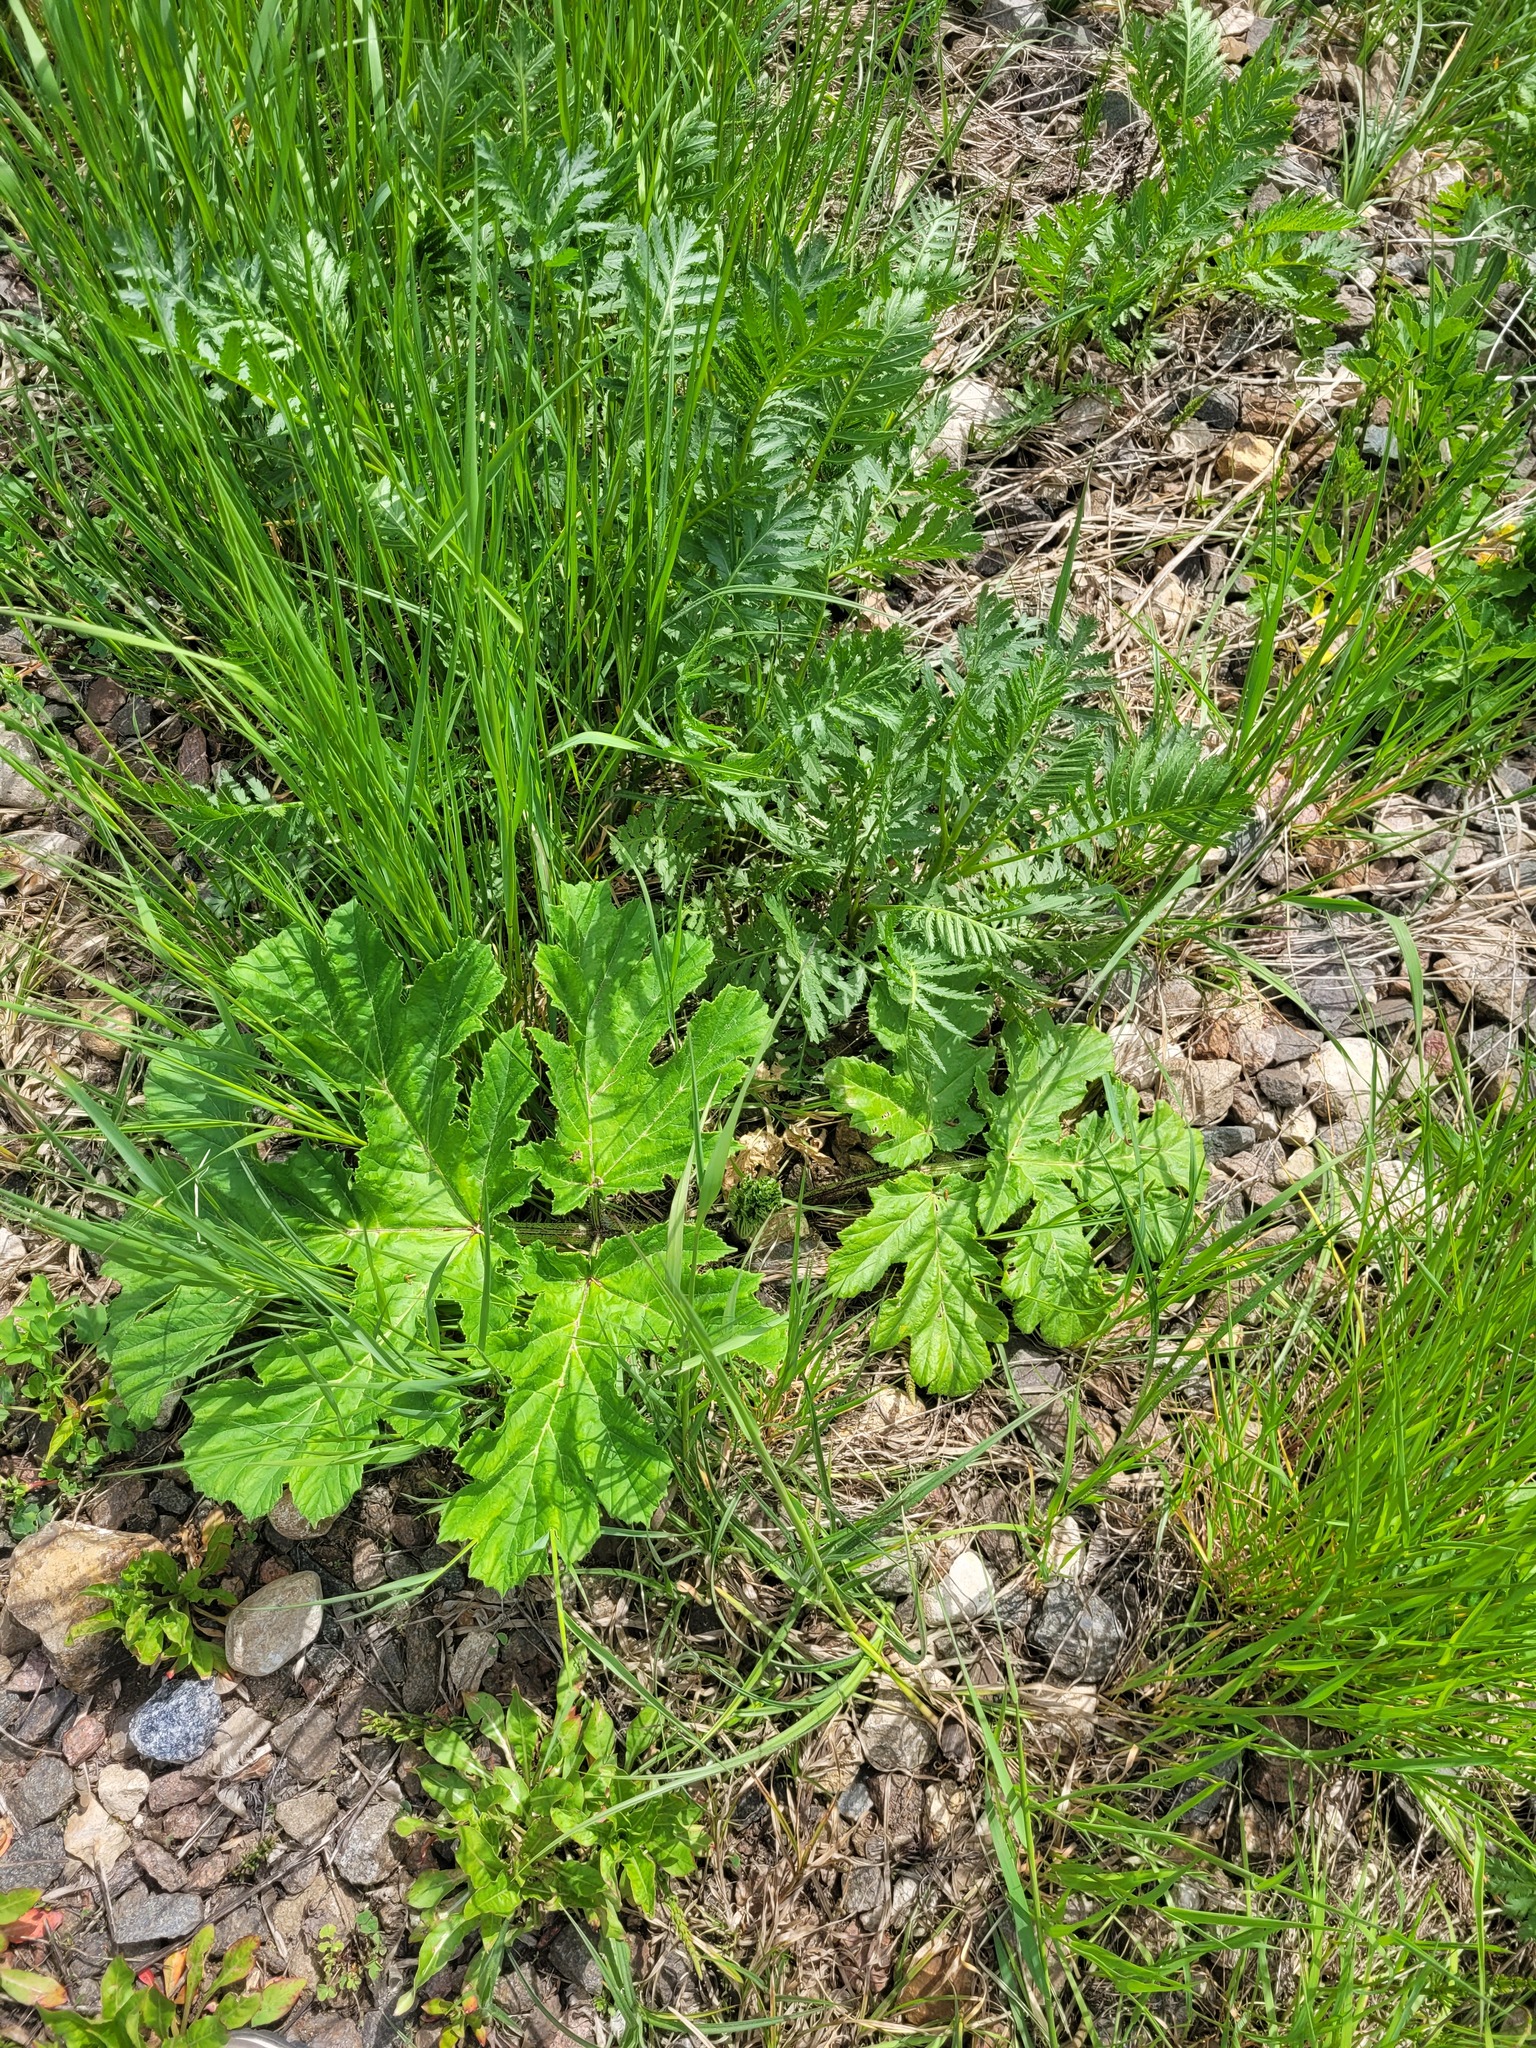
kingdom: Plantae
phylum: Tracheophyta
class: Magnoliopsida
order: Apiales
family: Apiaceae
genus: Heracleum
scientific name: Heracleum sosnowskyi
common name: Sosnowsky's hogweed
